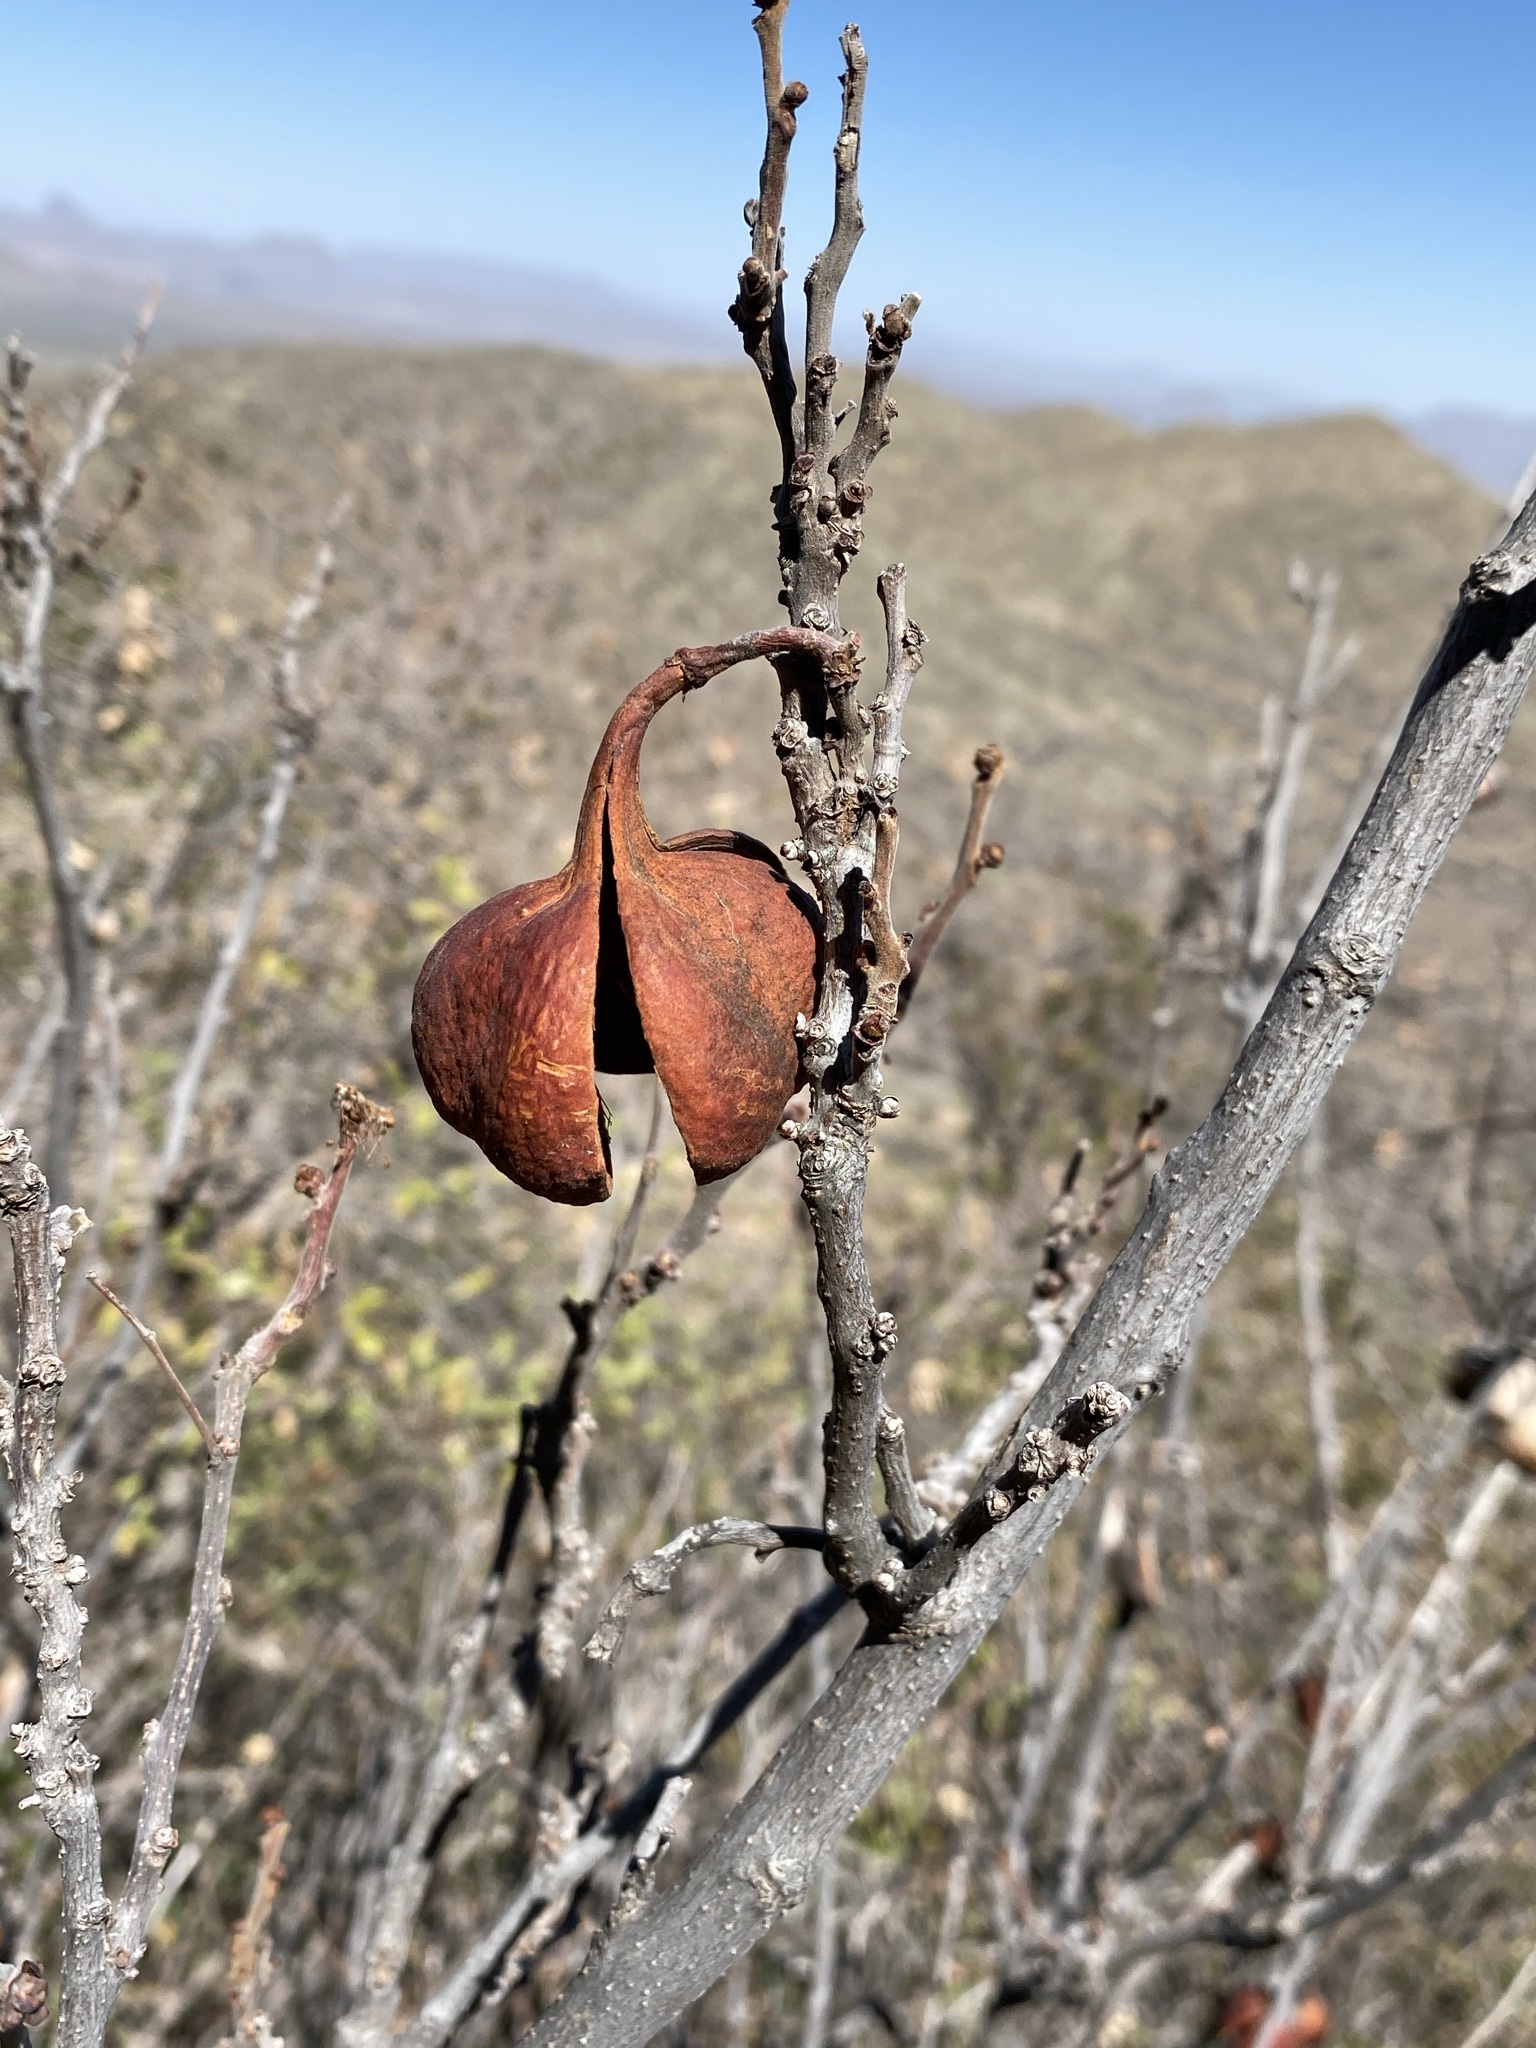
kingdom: Plantae
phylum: Tracheophyta
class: Magnoliopsida
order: Sapindales
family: Sapindaceae
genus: Ungnadia
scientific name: Ungnadia speciosa
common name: Texas-buckeye
